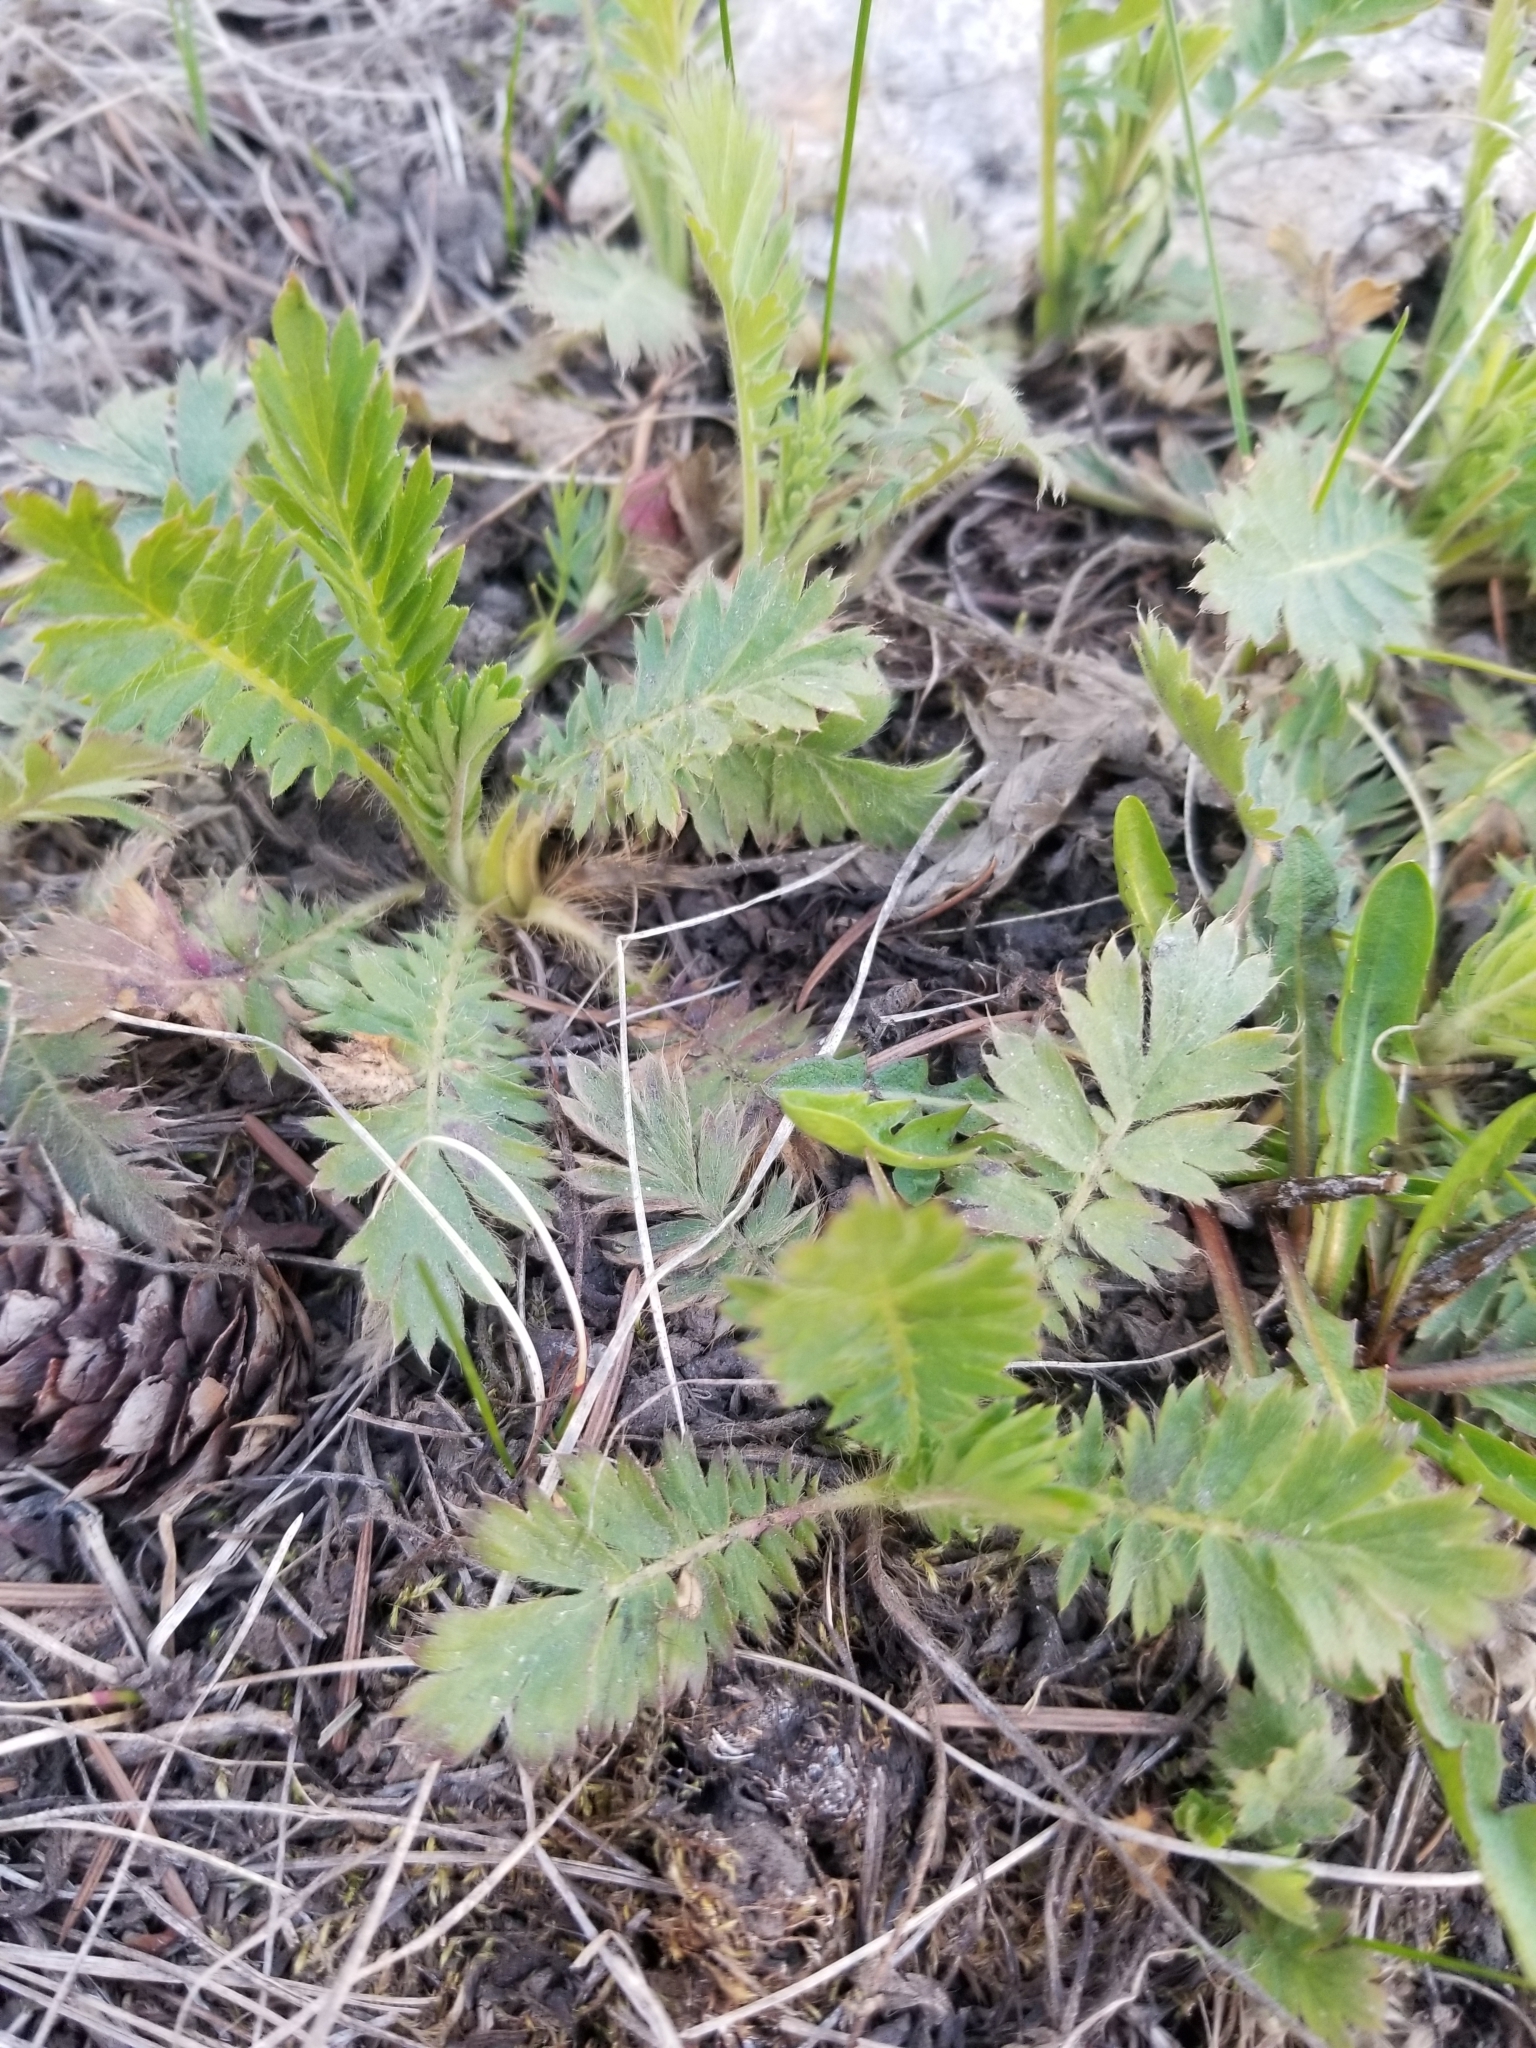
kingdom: Plantae
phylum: Tracheophyta
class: Magnoliopsida
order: Rosales
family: Rosaceae
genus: Geum
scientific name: Geum triflorum
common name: Old man's whiskers
